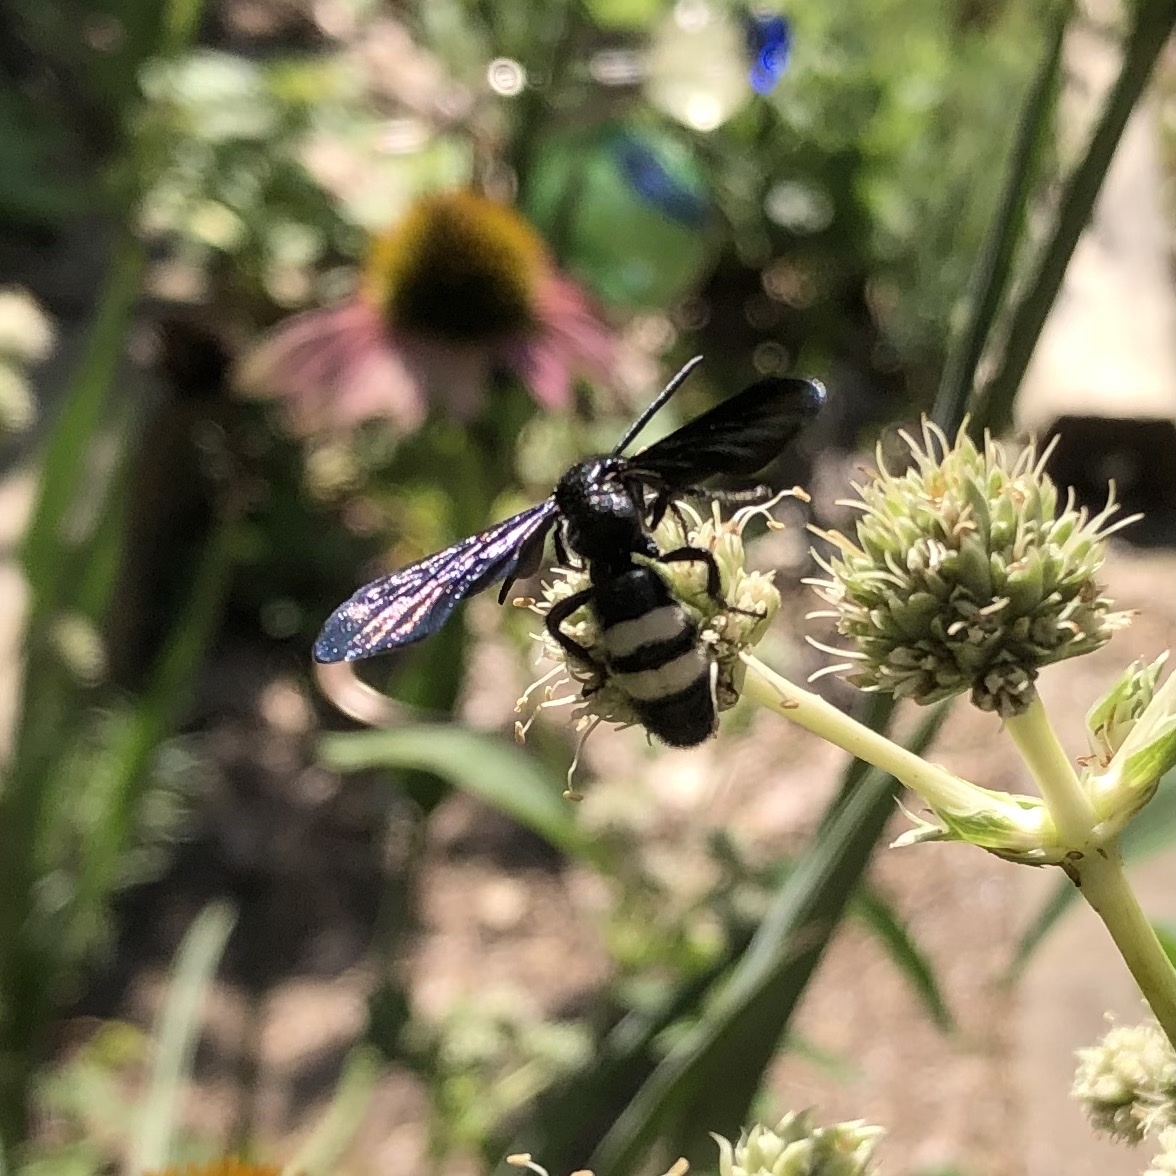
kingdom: Animalia
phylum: Arthropoda
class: Insecta
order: Hymenoptera
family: Scoliidae
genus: Scolia
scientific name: Scolia bicincta
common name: Double-banded scoliid wasp
